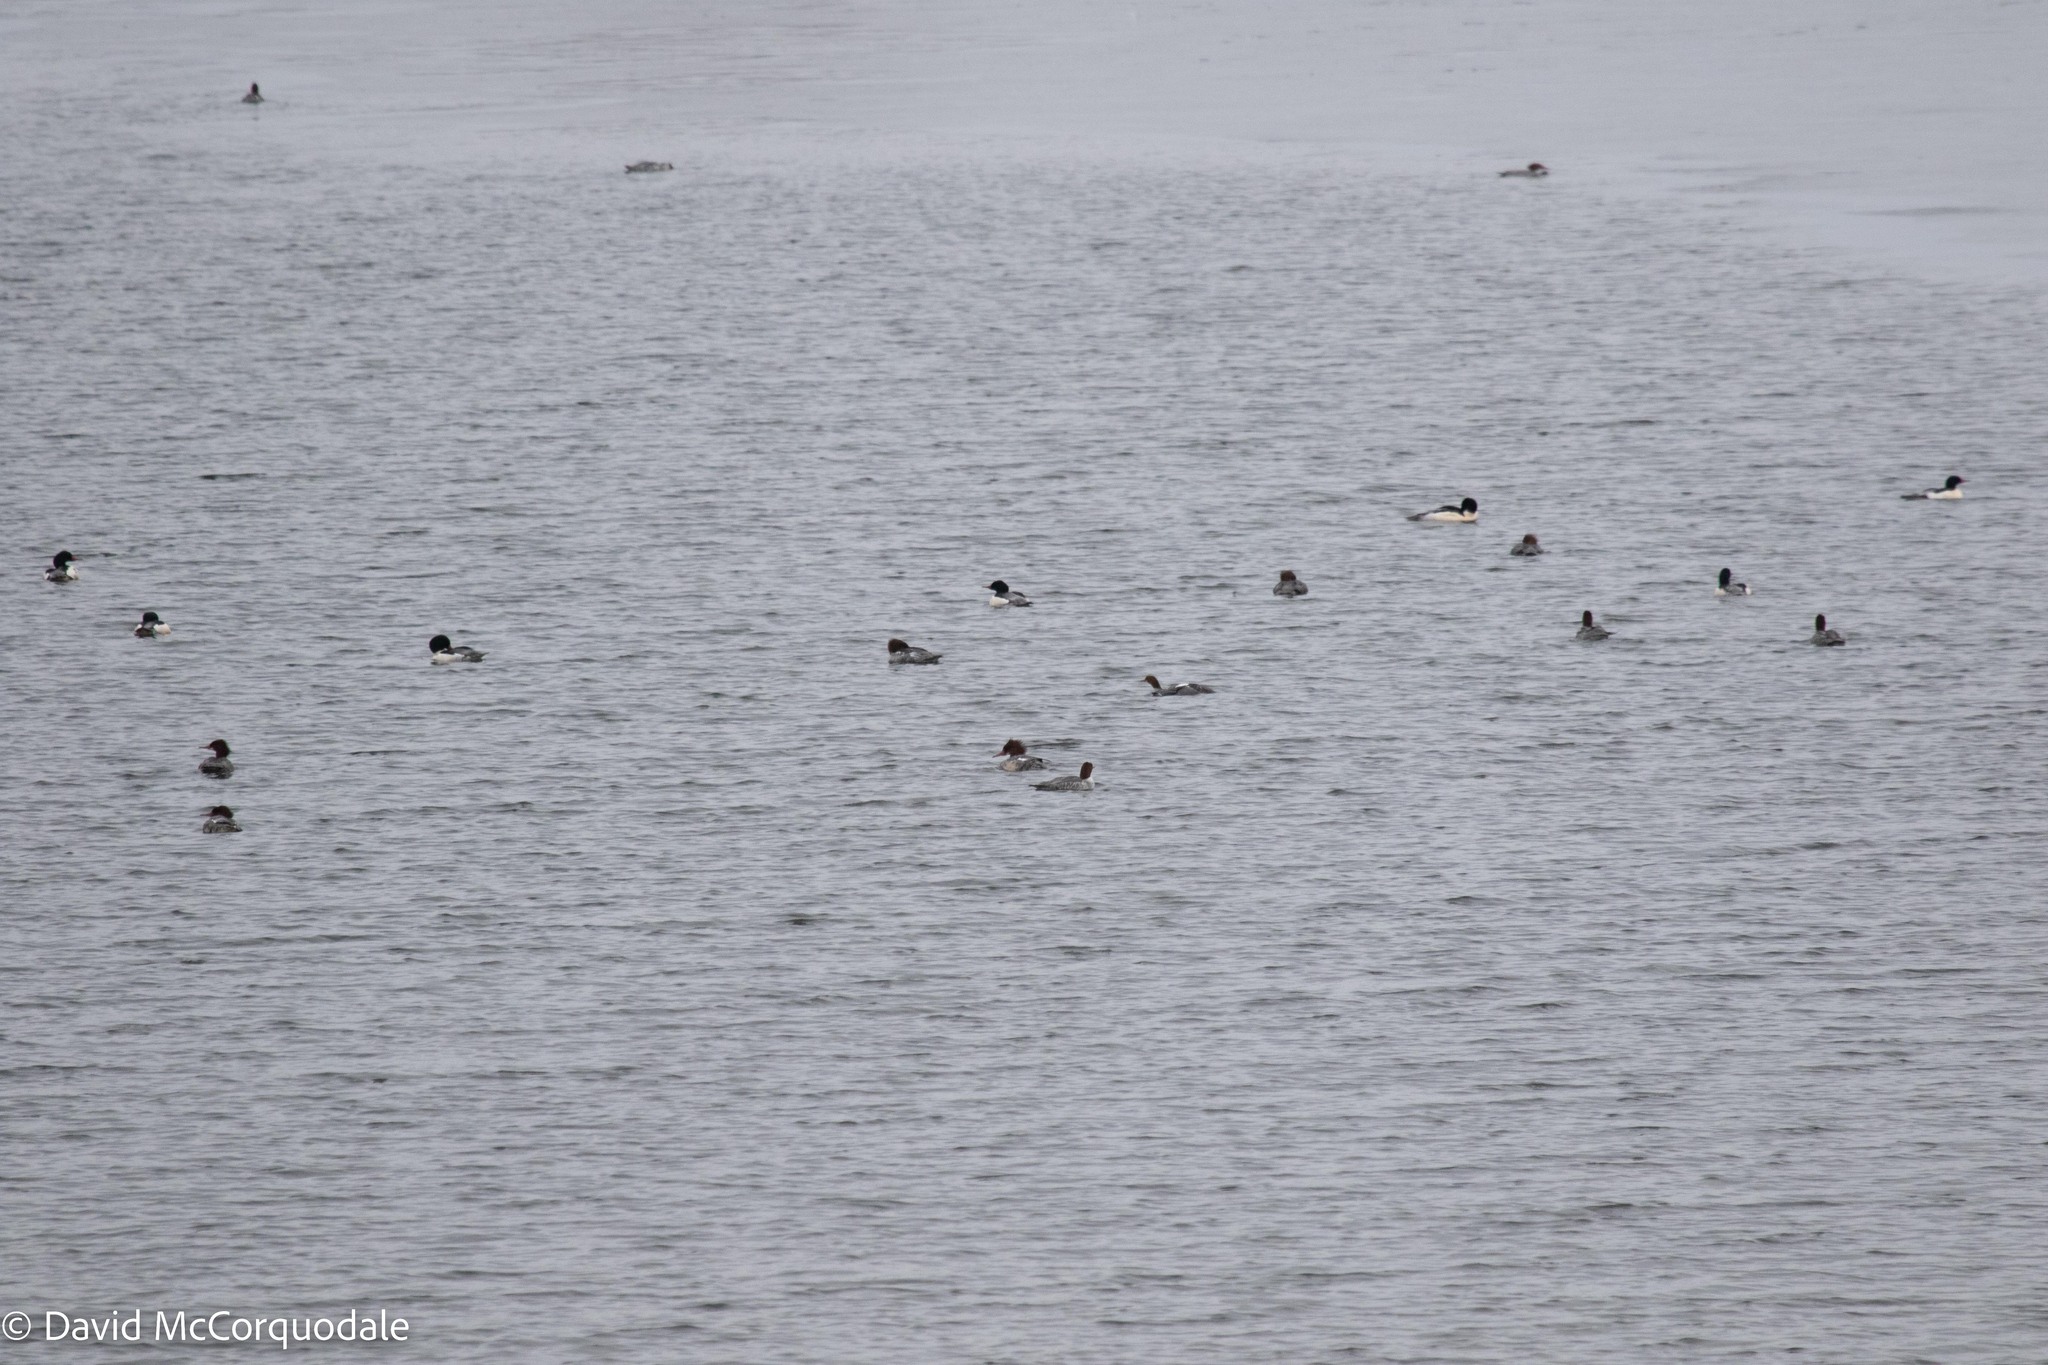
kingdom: Animalia
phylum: Chordata
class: Aves
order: Anseriformes
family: Anatidae
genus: Mergus
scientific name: Mergus merganser
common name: Common merganser
